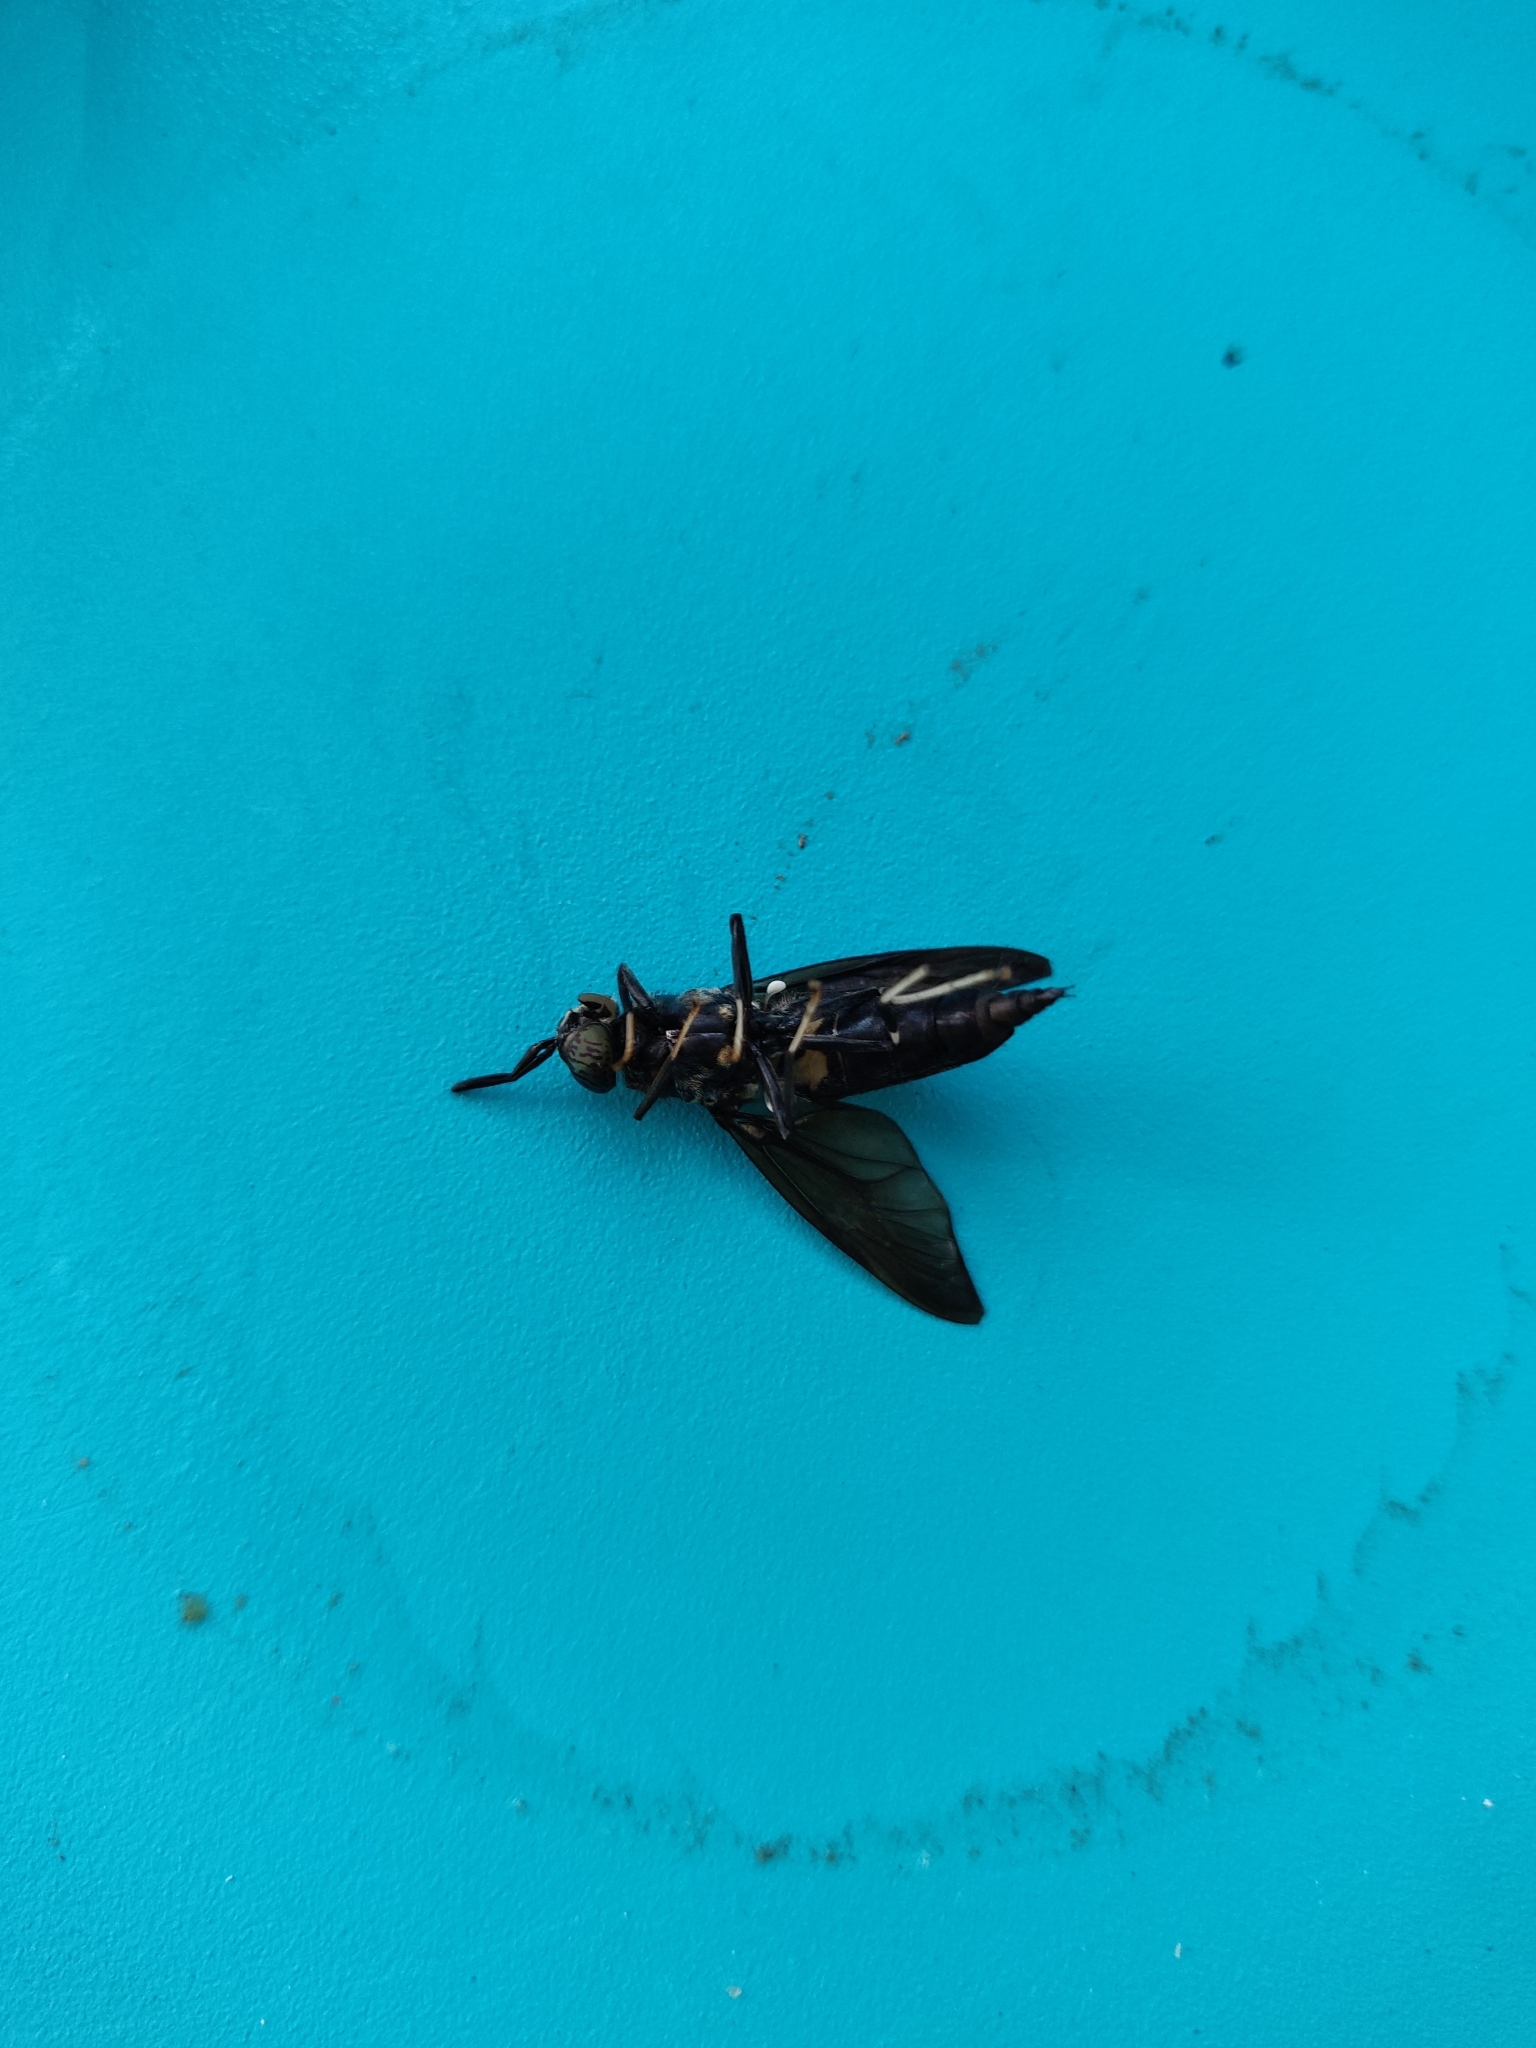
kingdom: Animalia
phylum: Arthropoda
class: Insecta
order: Diptera
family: Stratiomyidae
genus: Hermetia
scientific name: Hermetia illucens
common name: Black soldier fly
